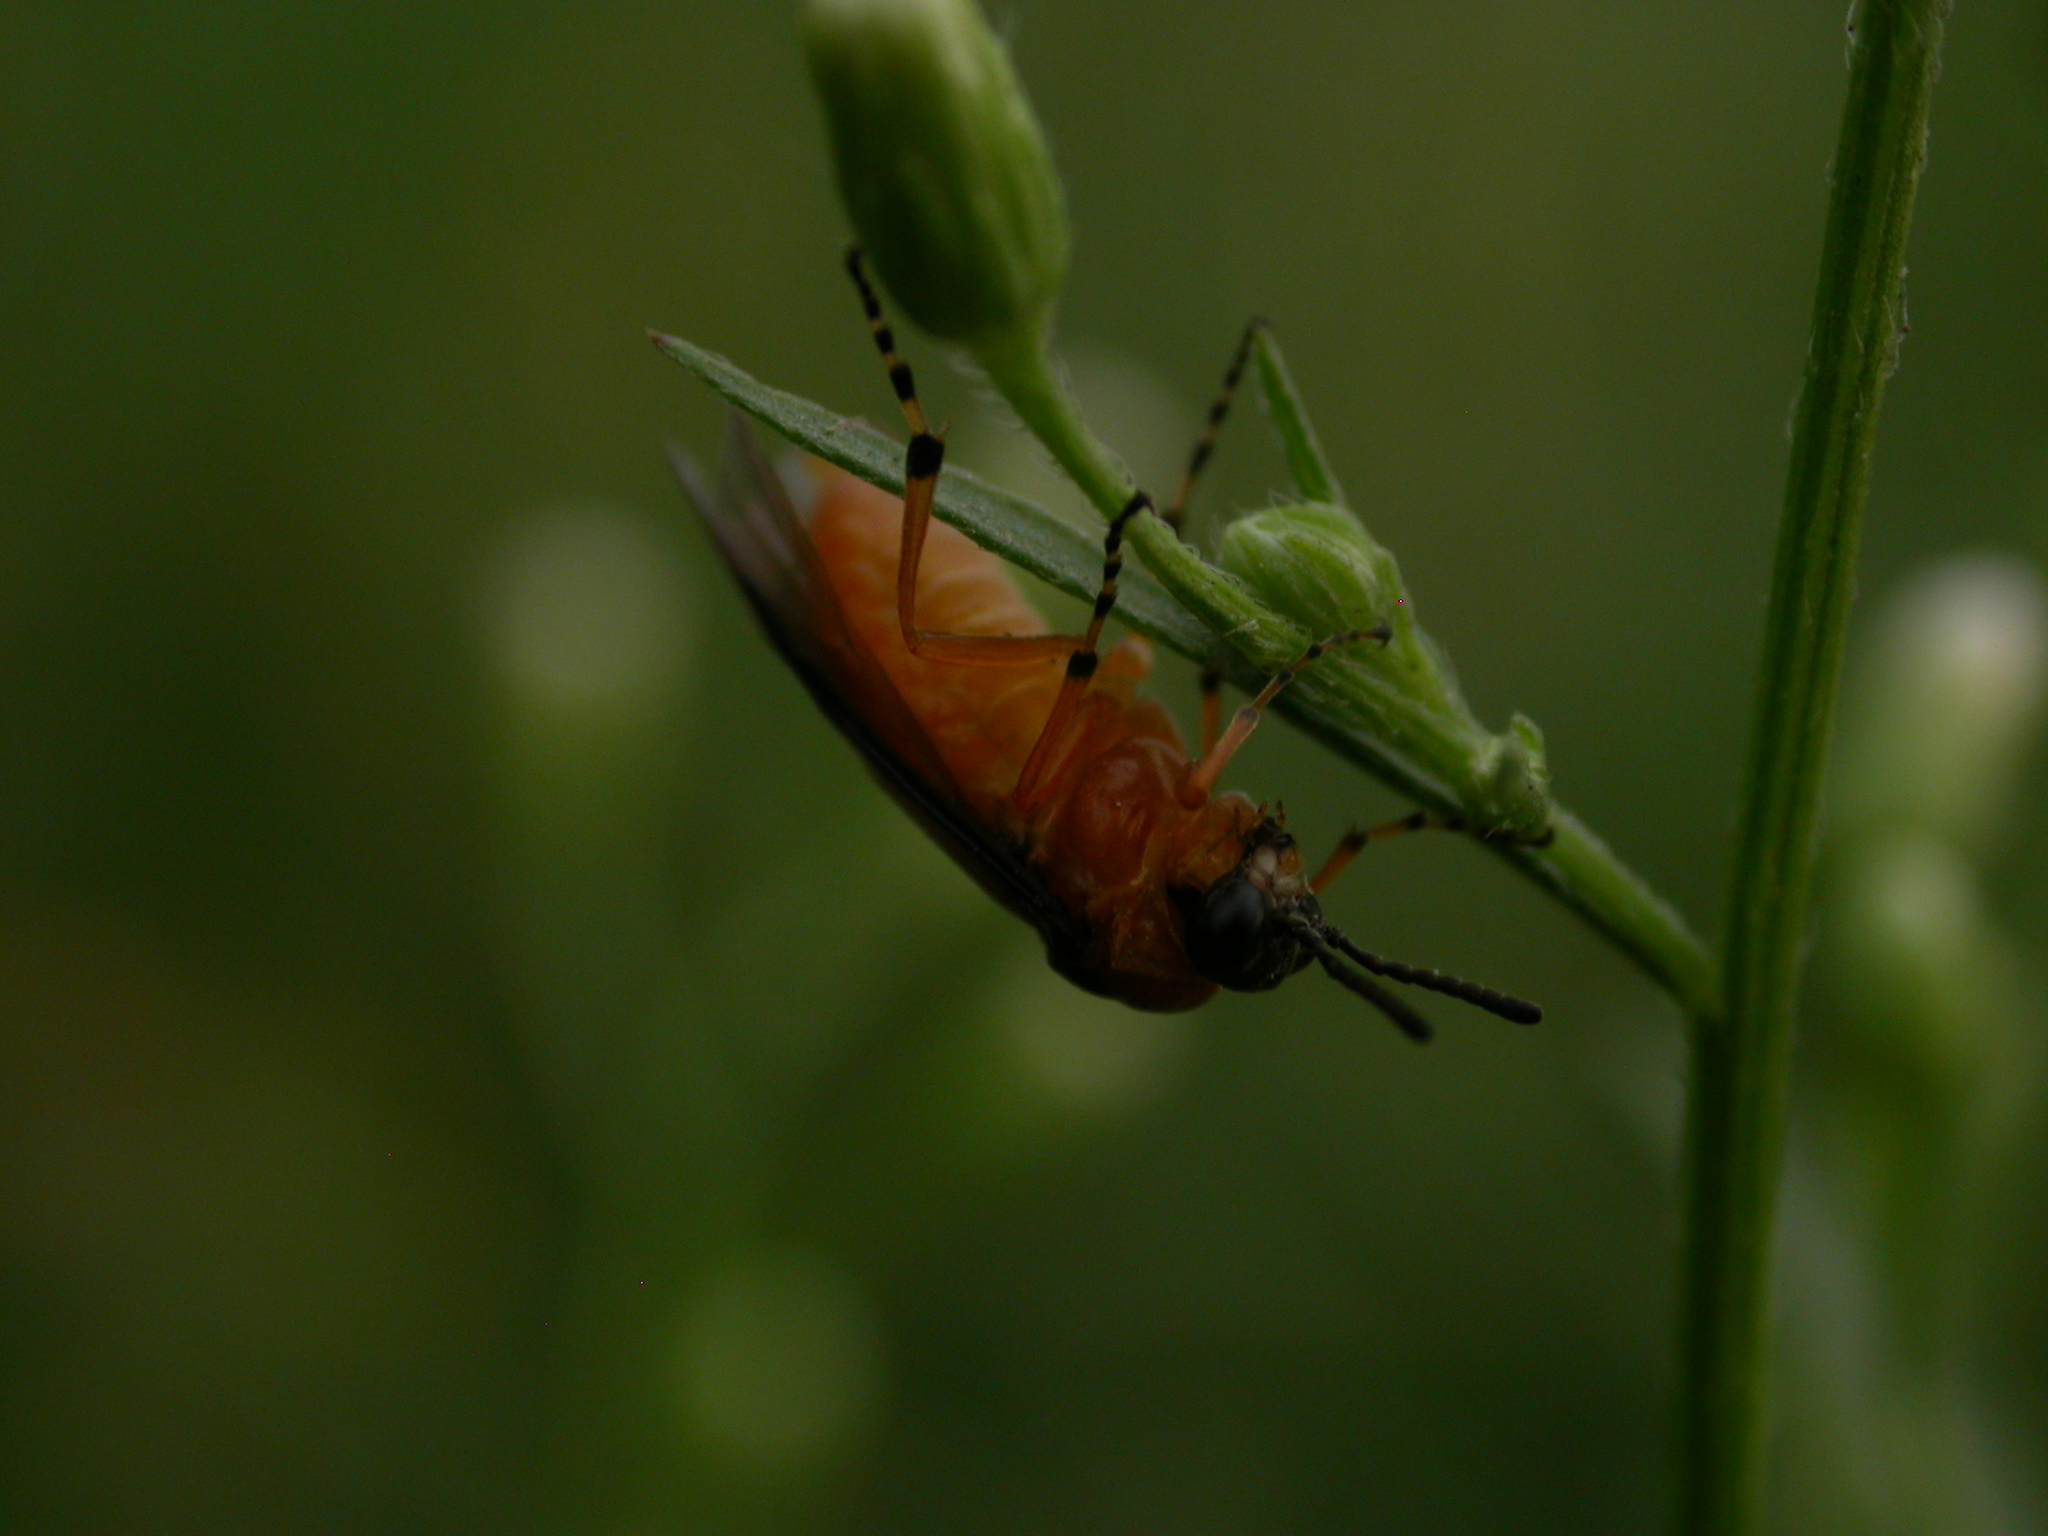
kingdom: Animalia
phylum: Arthropoda
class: Insecta
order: Hymenoptera
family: Tenthredinidae
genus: Athalia
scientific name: Athalia rosae
